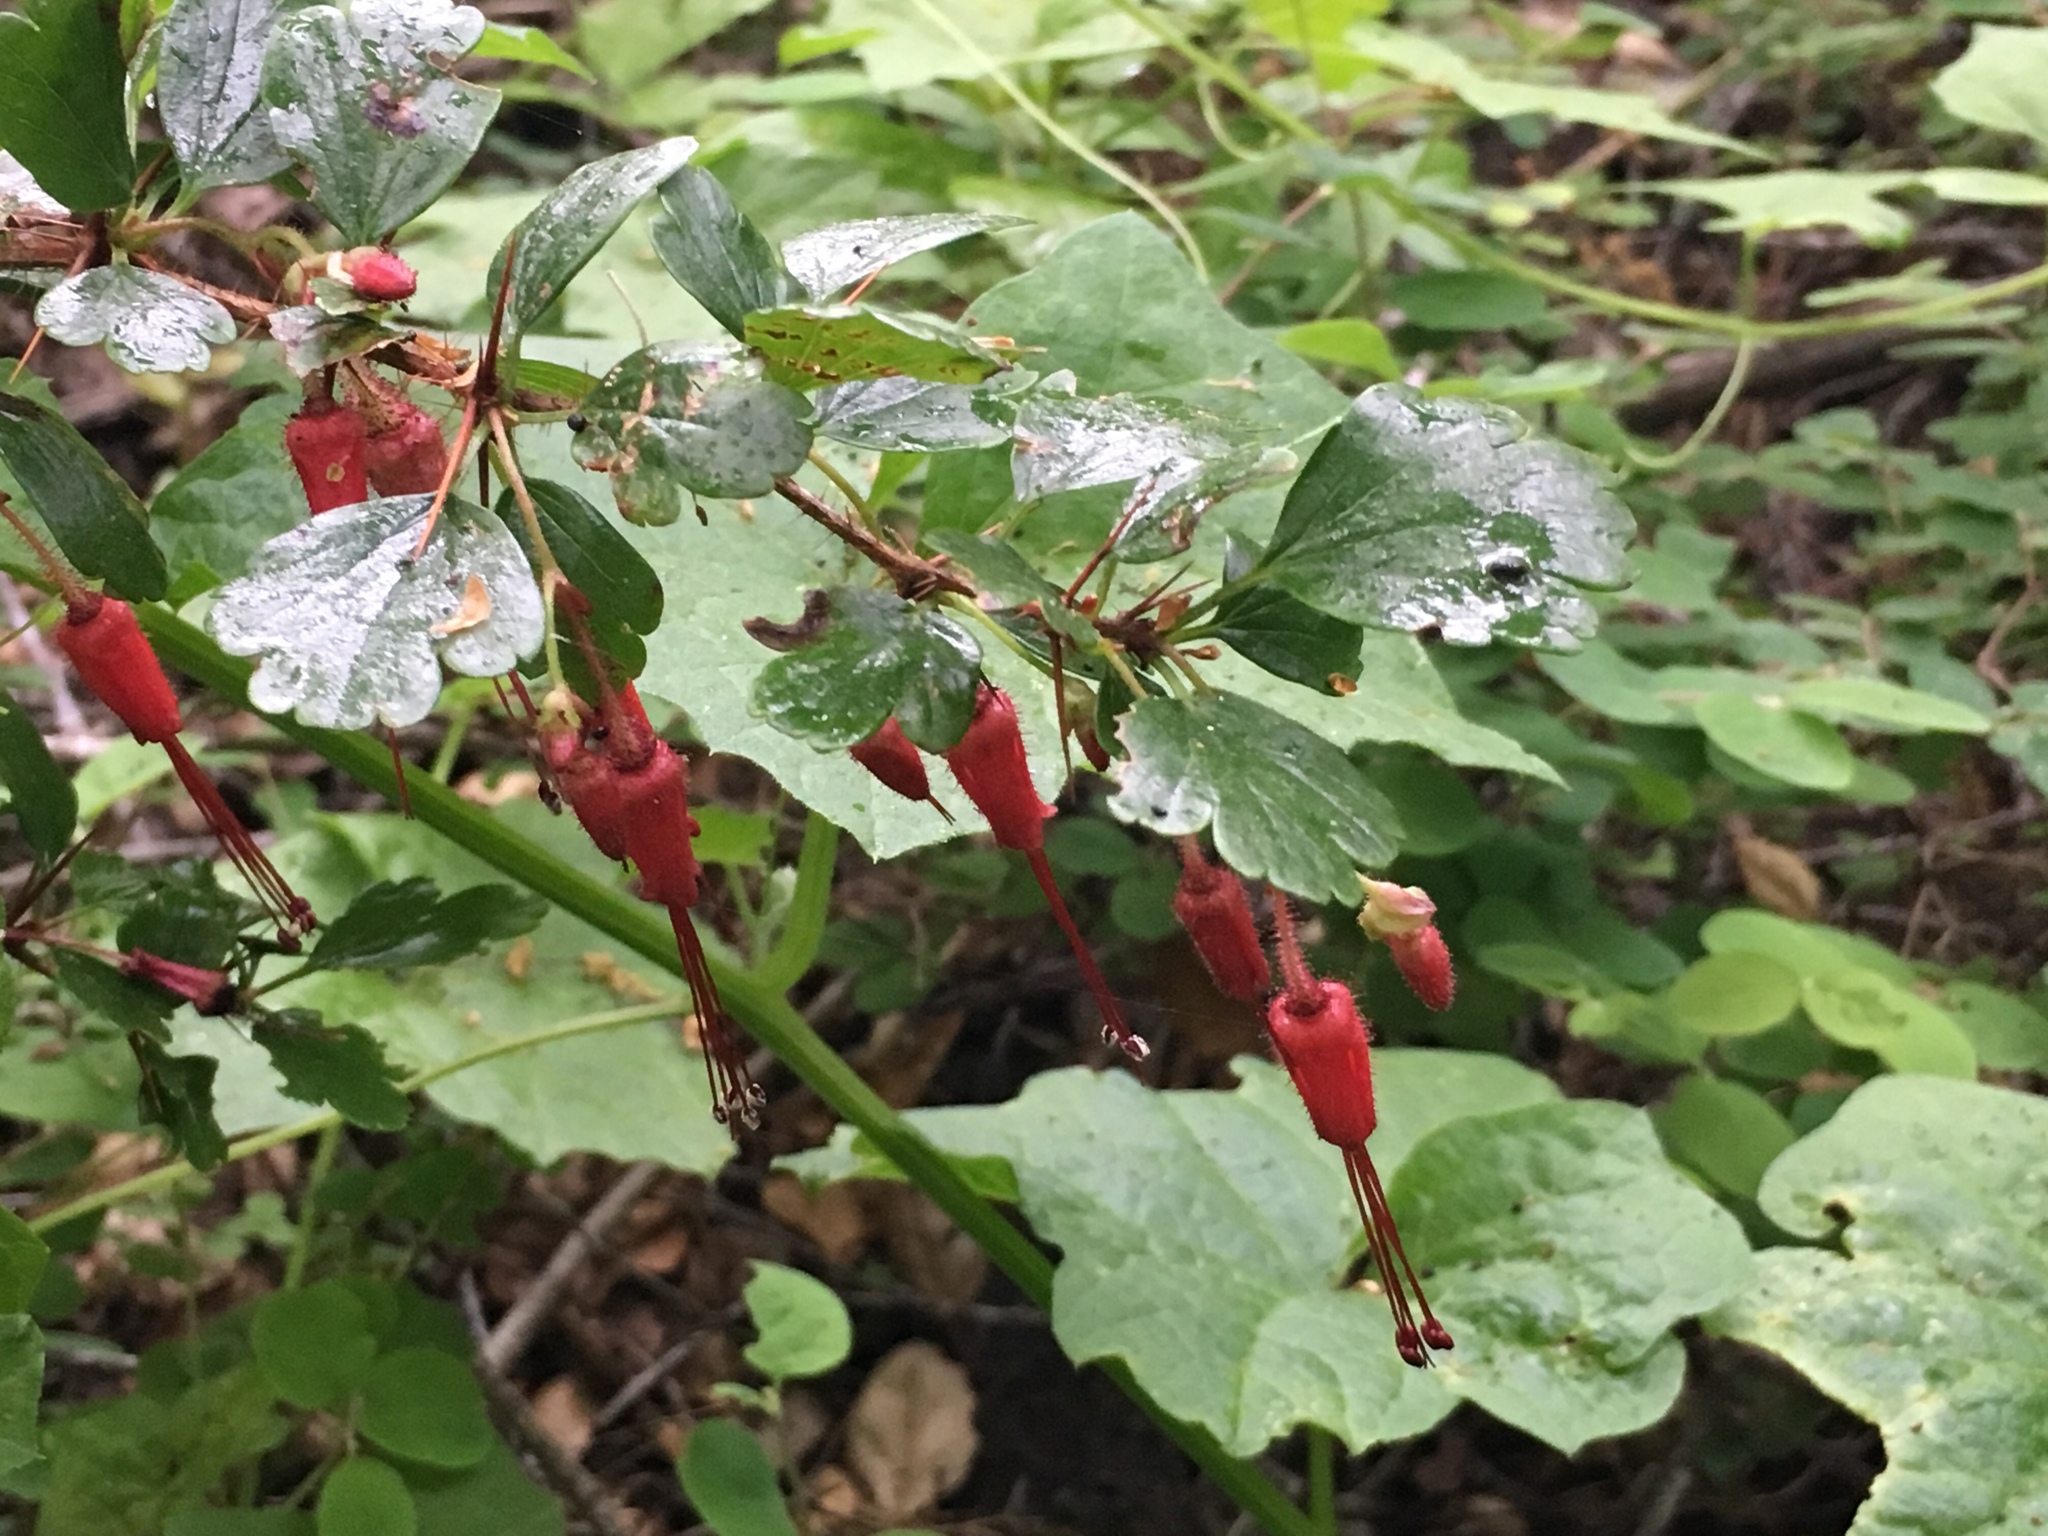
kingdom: Plantae
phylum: Tracheophyta
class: Magnoliopsida
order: Saxifragales
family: Grossulariaceae
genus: Ribes
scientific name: Ribes speciosum
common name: Fuchsia-flower gooseberry
